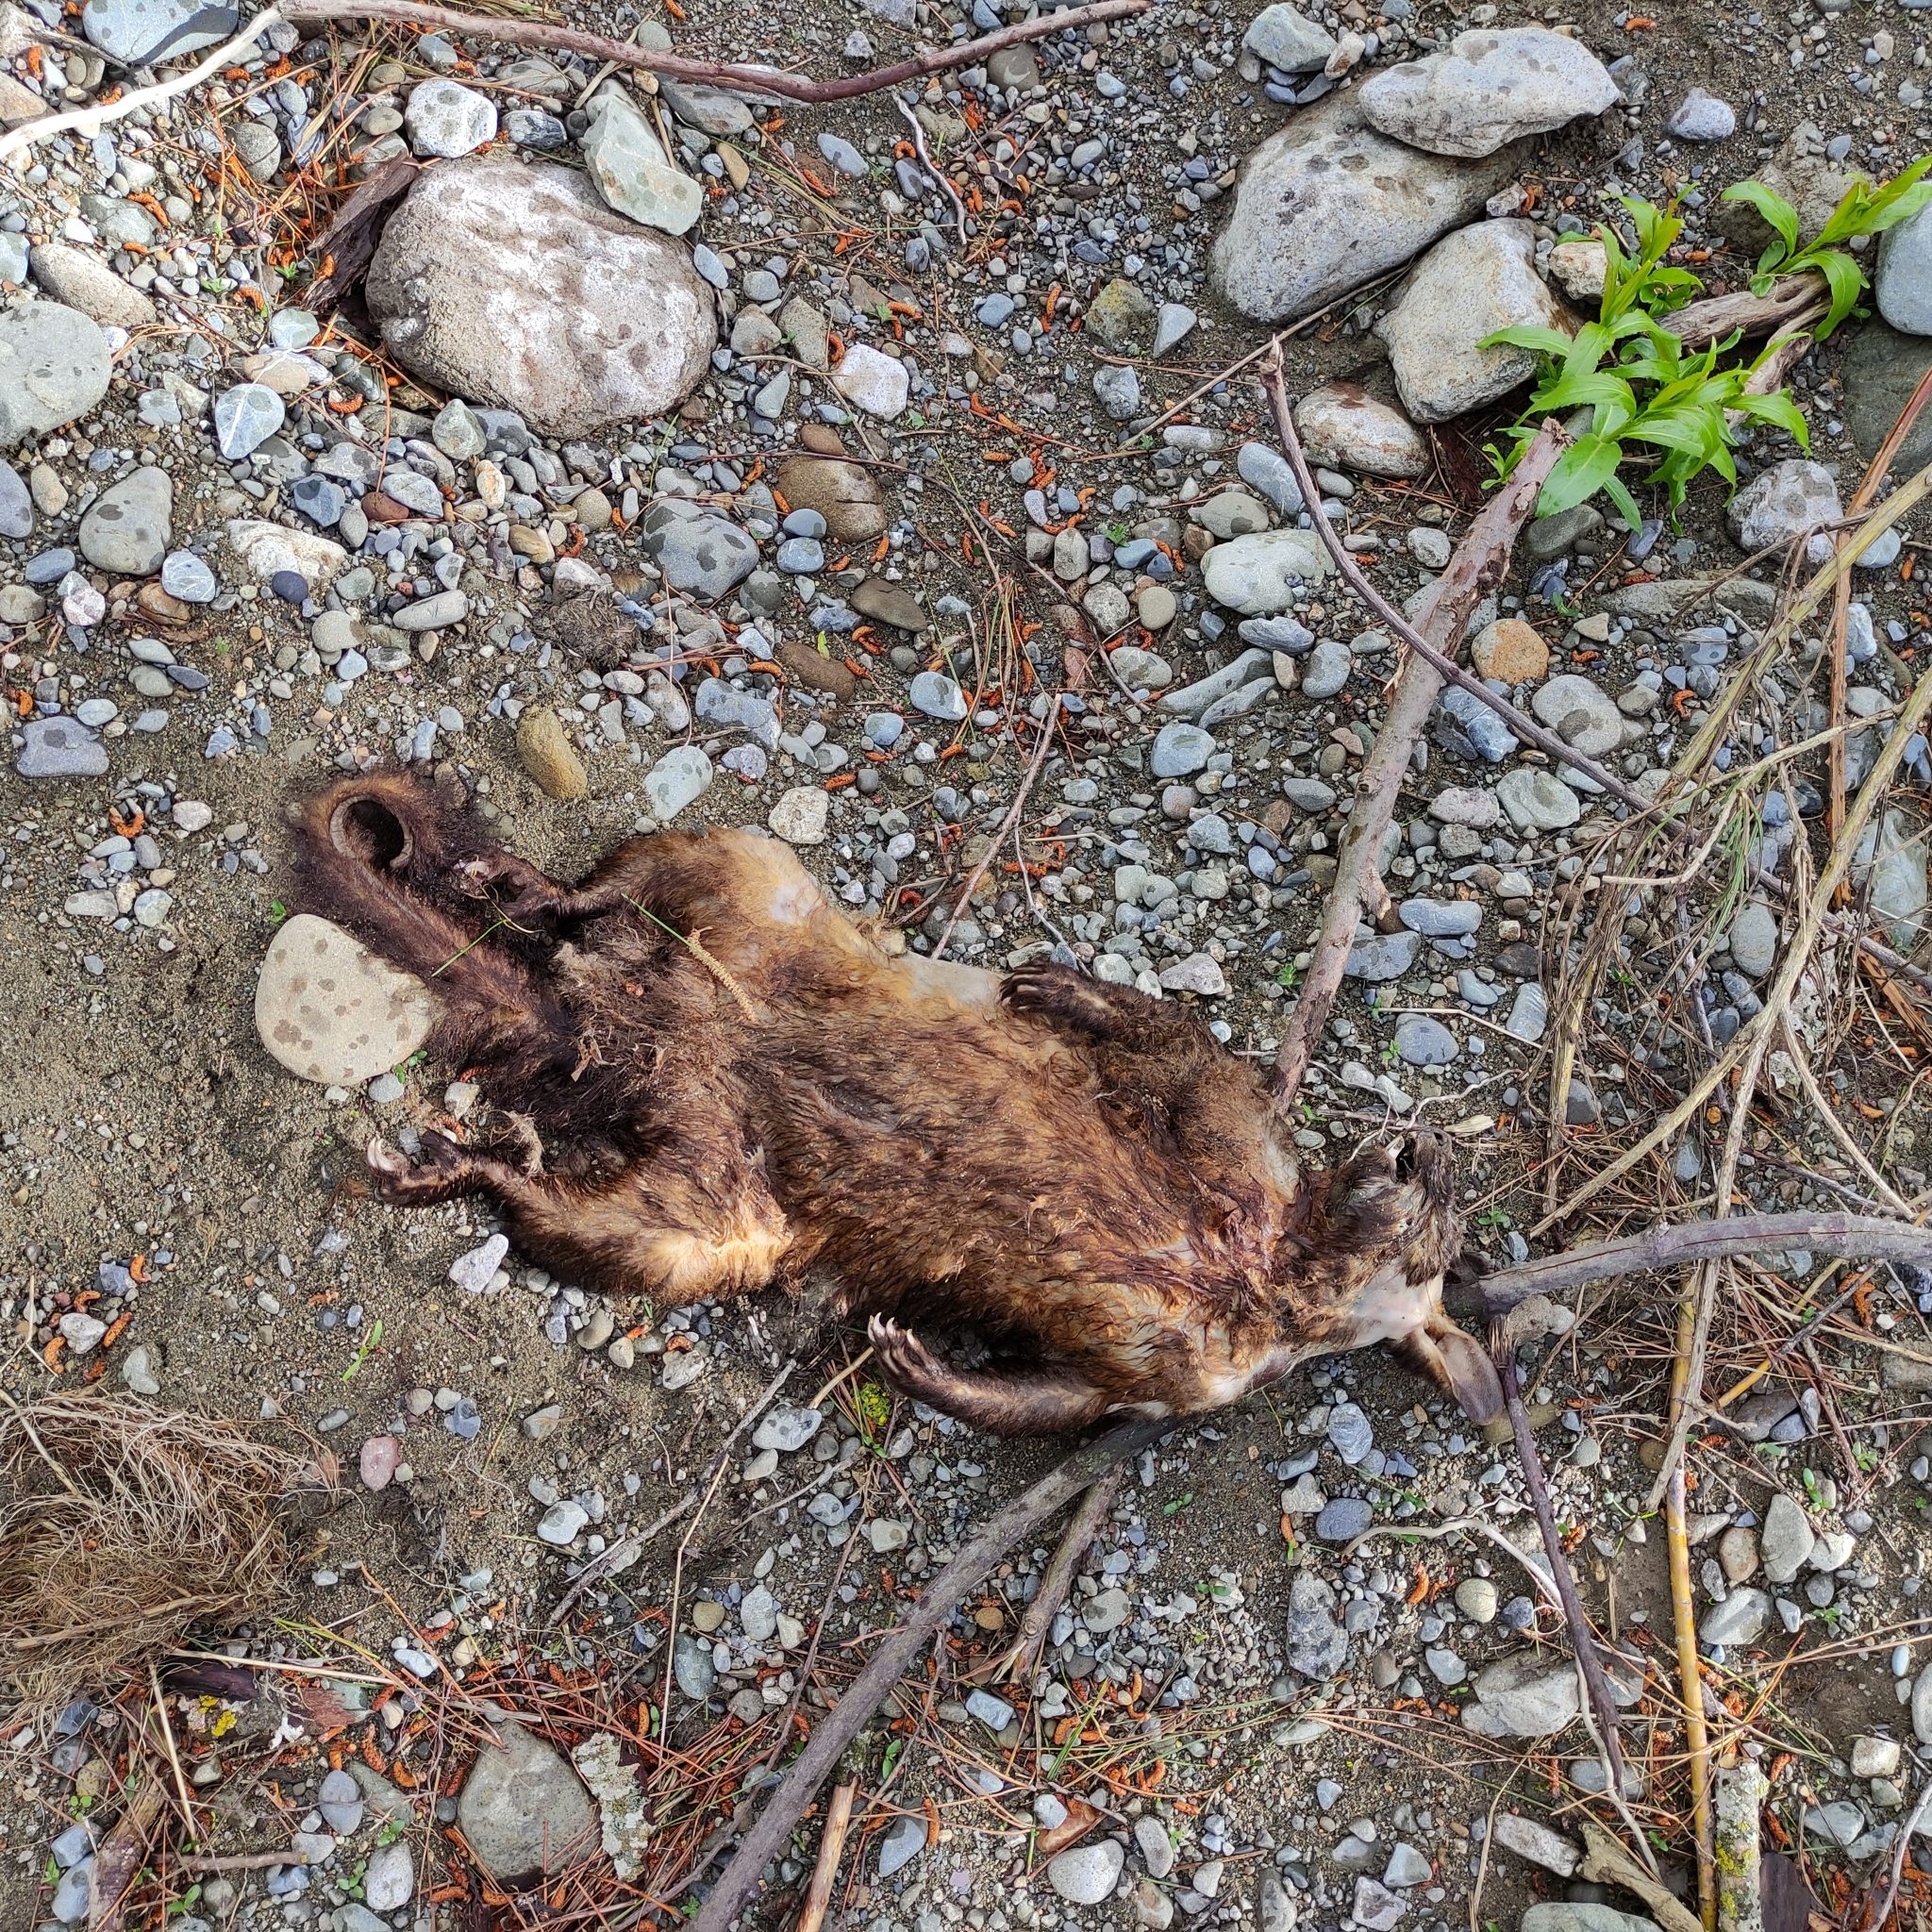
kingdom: Animalia
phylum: Chordata
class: Mammalia
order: Diprotodontia
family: Phalangeridae
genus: Trichosurus
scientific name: Trichosurus vulpecula
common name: Common brushtail
